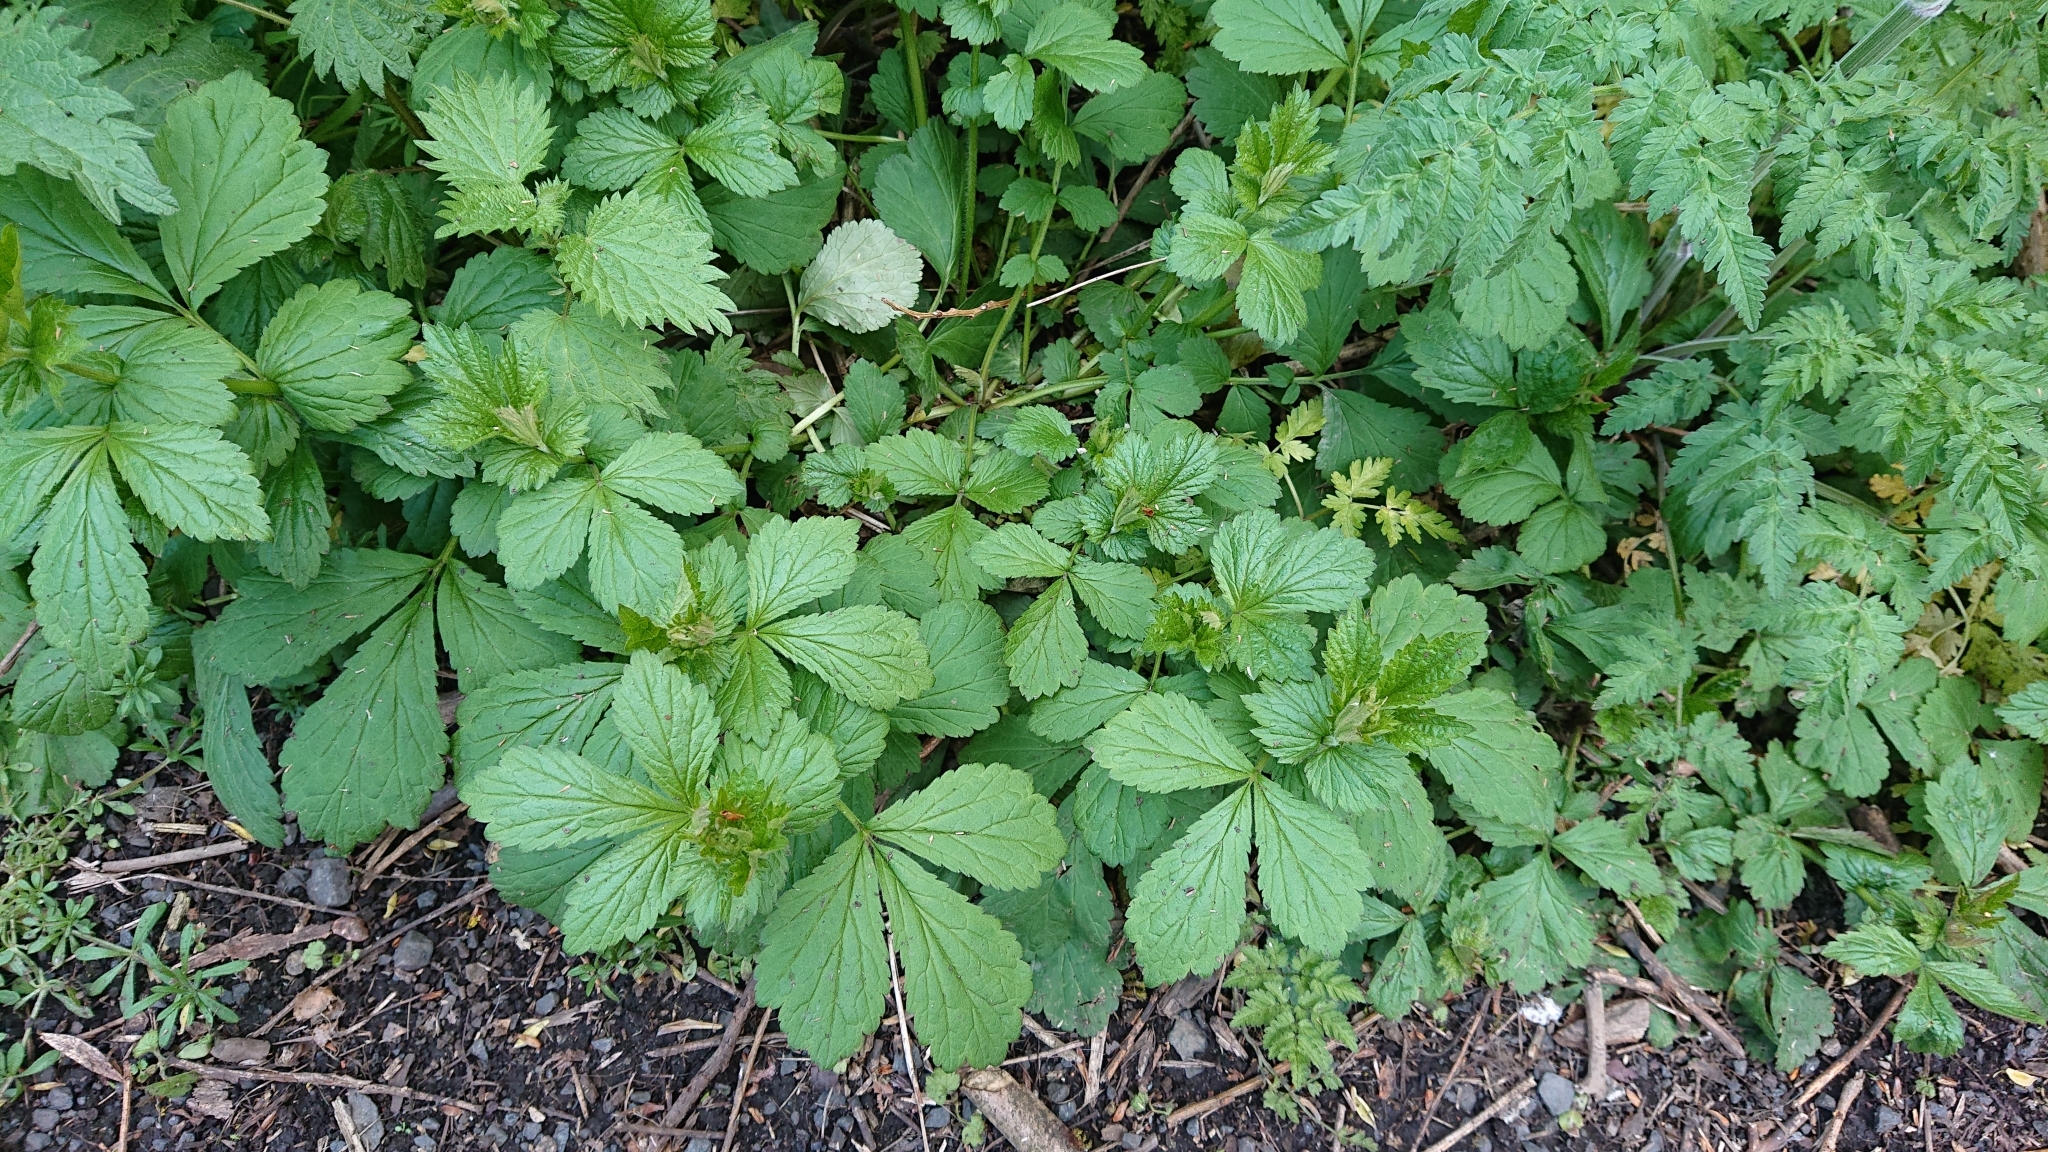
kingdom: Plantae
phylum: Tracheophyta
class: Magnoliopsida
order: Rosales
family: Rosaceae
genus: Geum
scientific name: Geum urbanum
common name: Wood avens
